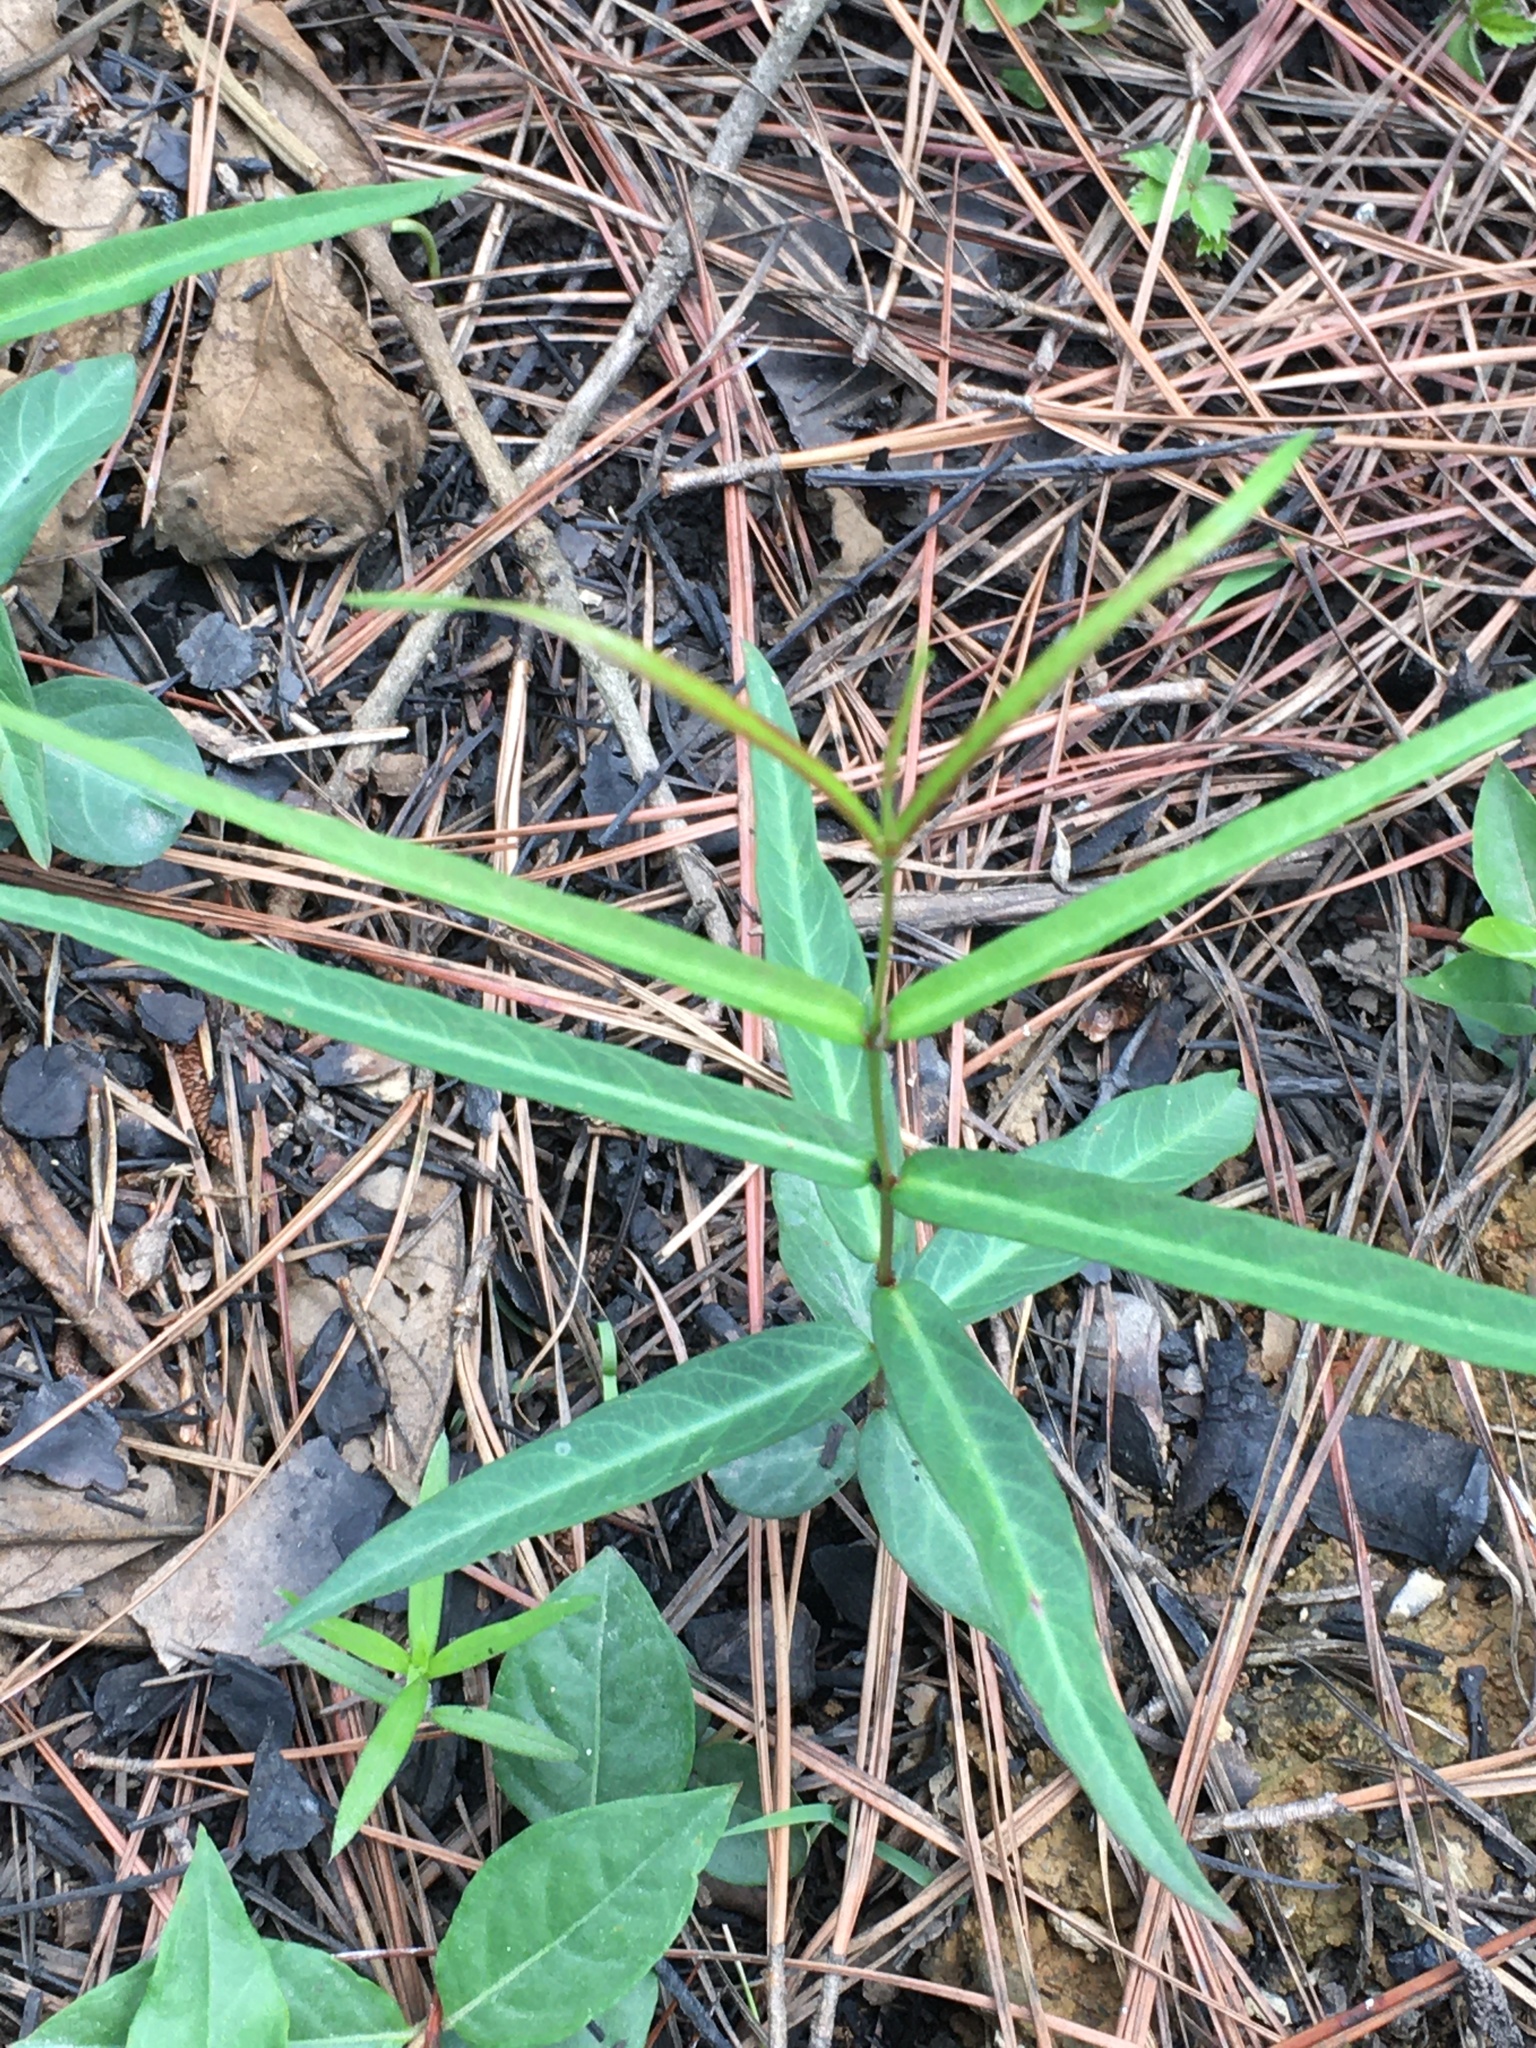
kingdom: Plantae
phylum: Tracheophyta
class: Magnoliopsida
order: Gentianales
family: Apocynaceae
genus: Thyrsanthella
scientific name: Thyrsanthella difformis
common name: Climbing dogbane
